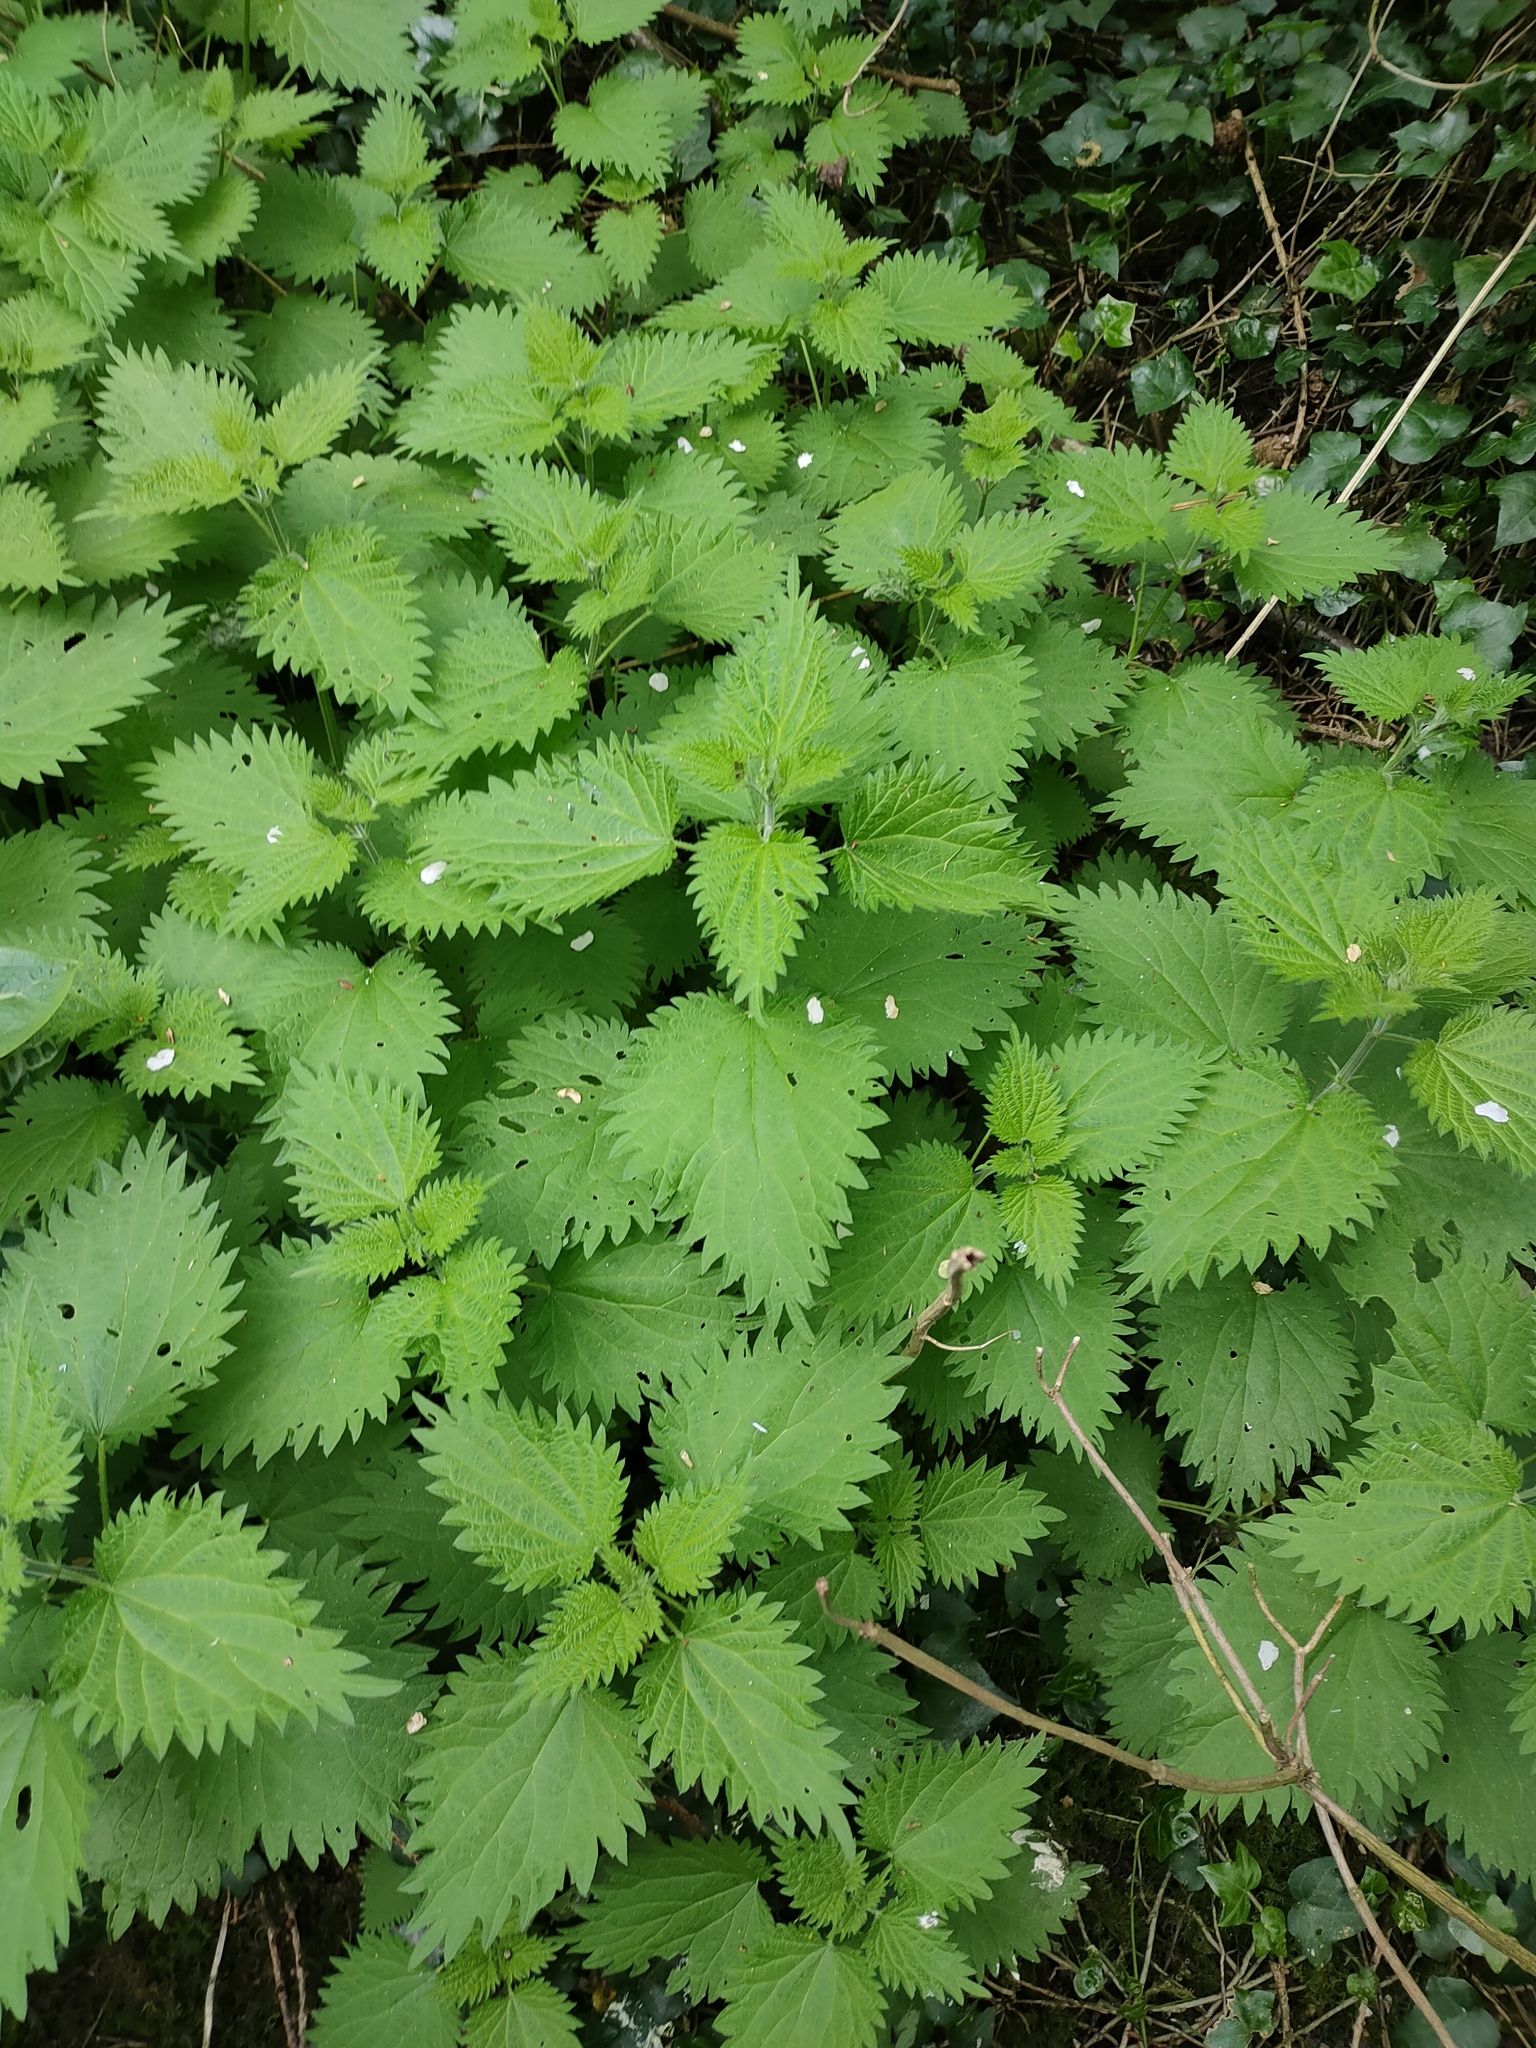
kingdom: Plantae
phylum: Tracheophyta
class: Magnoliopsida
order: Rosales
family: Urticaceae
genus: Urtica
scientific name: Urtica dioica
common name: Common nettle
